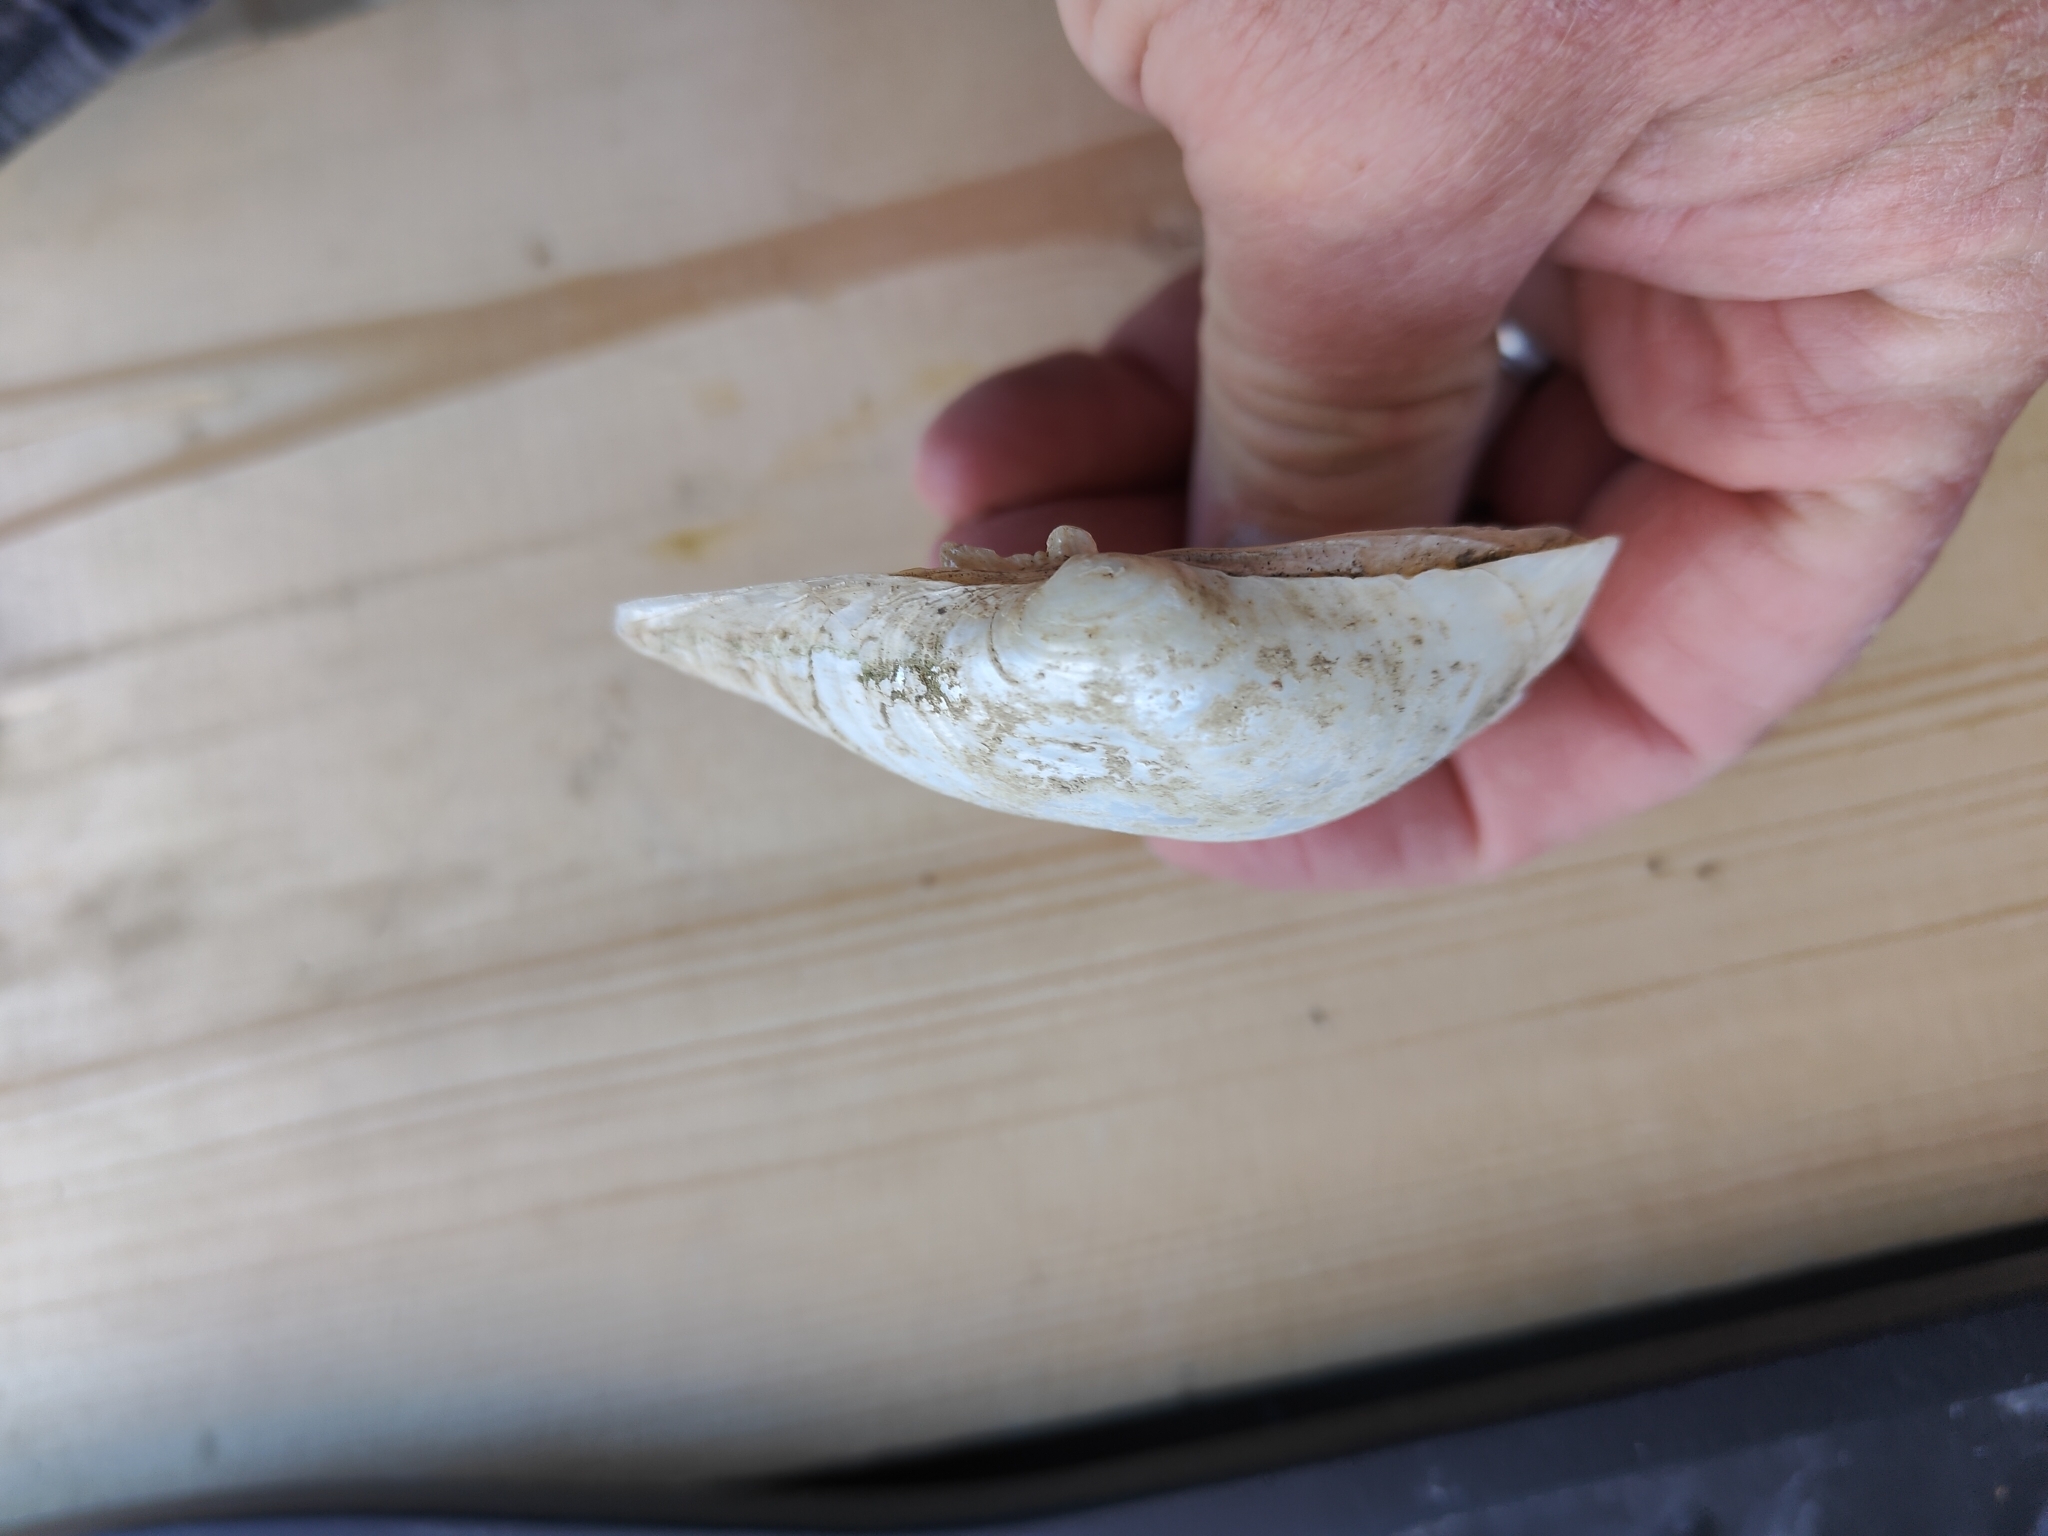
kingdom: Animalia
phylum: Mollusca
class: Bivalvia
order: Unionida
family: Unionidae
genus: Lampsilis
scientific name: Lampsilis cardium
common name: Plain pocketbook
